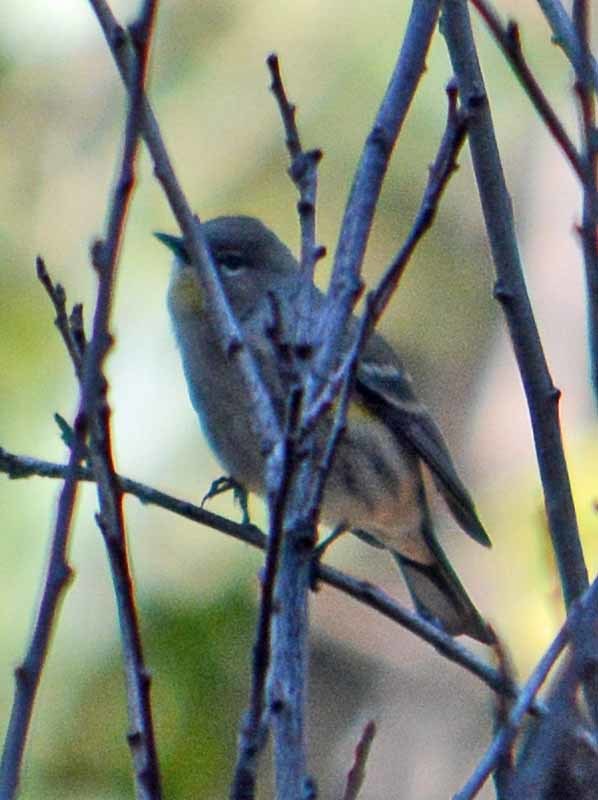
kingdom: Animalia
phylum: Chordata
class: Aves
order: Passeriformes
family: Parulidae
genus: Setophaga
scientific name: Setophaga auduboni
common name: Audubon's warbler
